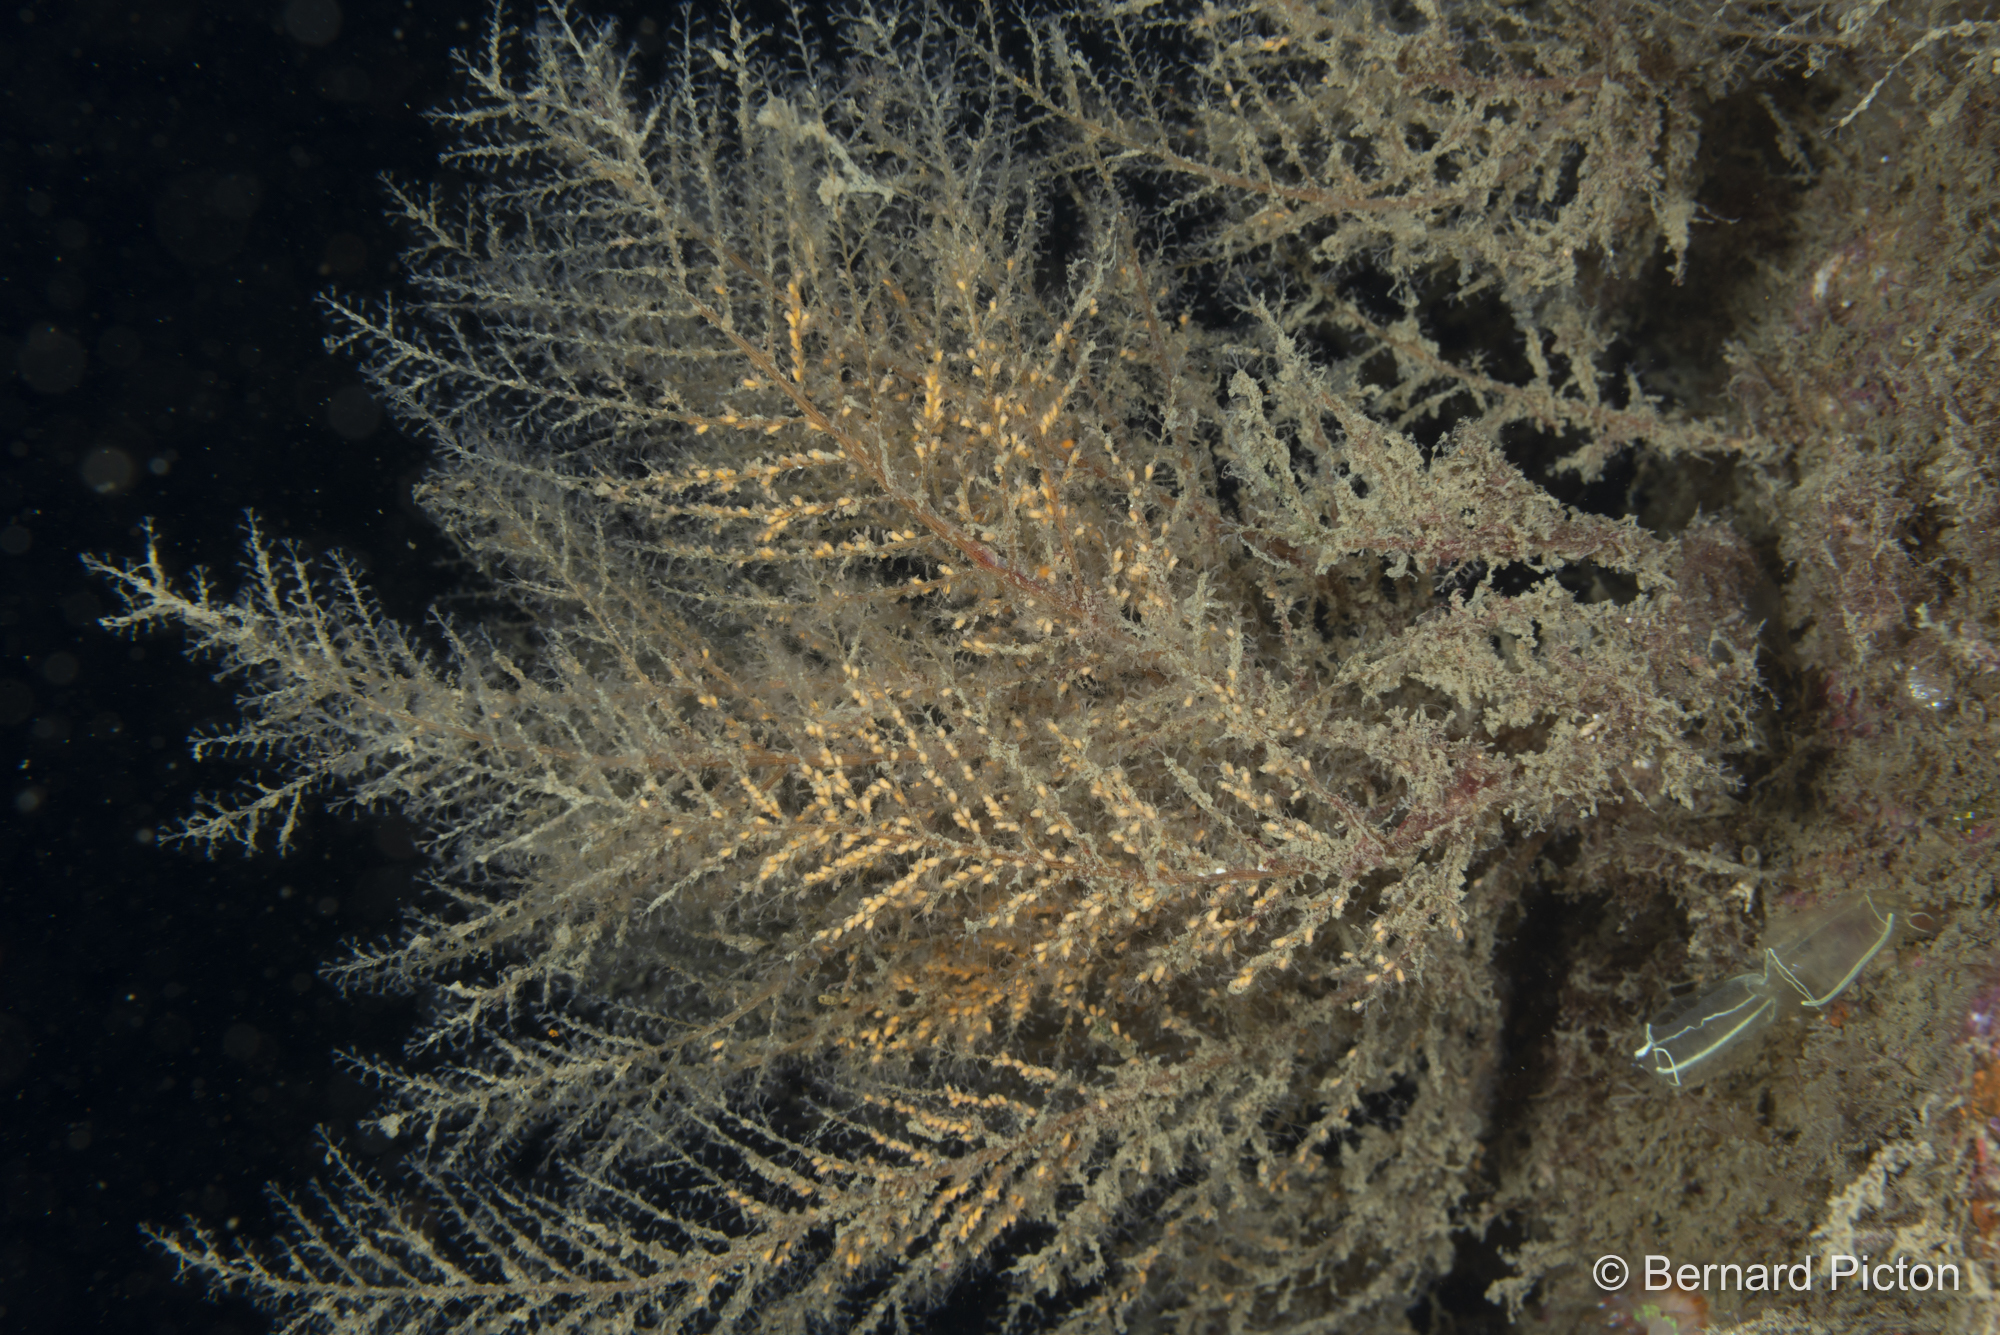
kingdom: Animalia
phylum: Cnidaria
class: Hydrozoa
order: Leptothecata
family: Haleciidae
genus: Halecium
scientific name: Halecium halecinum
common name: Herringbone hydroid
